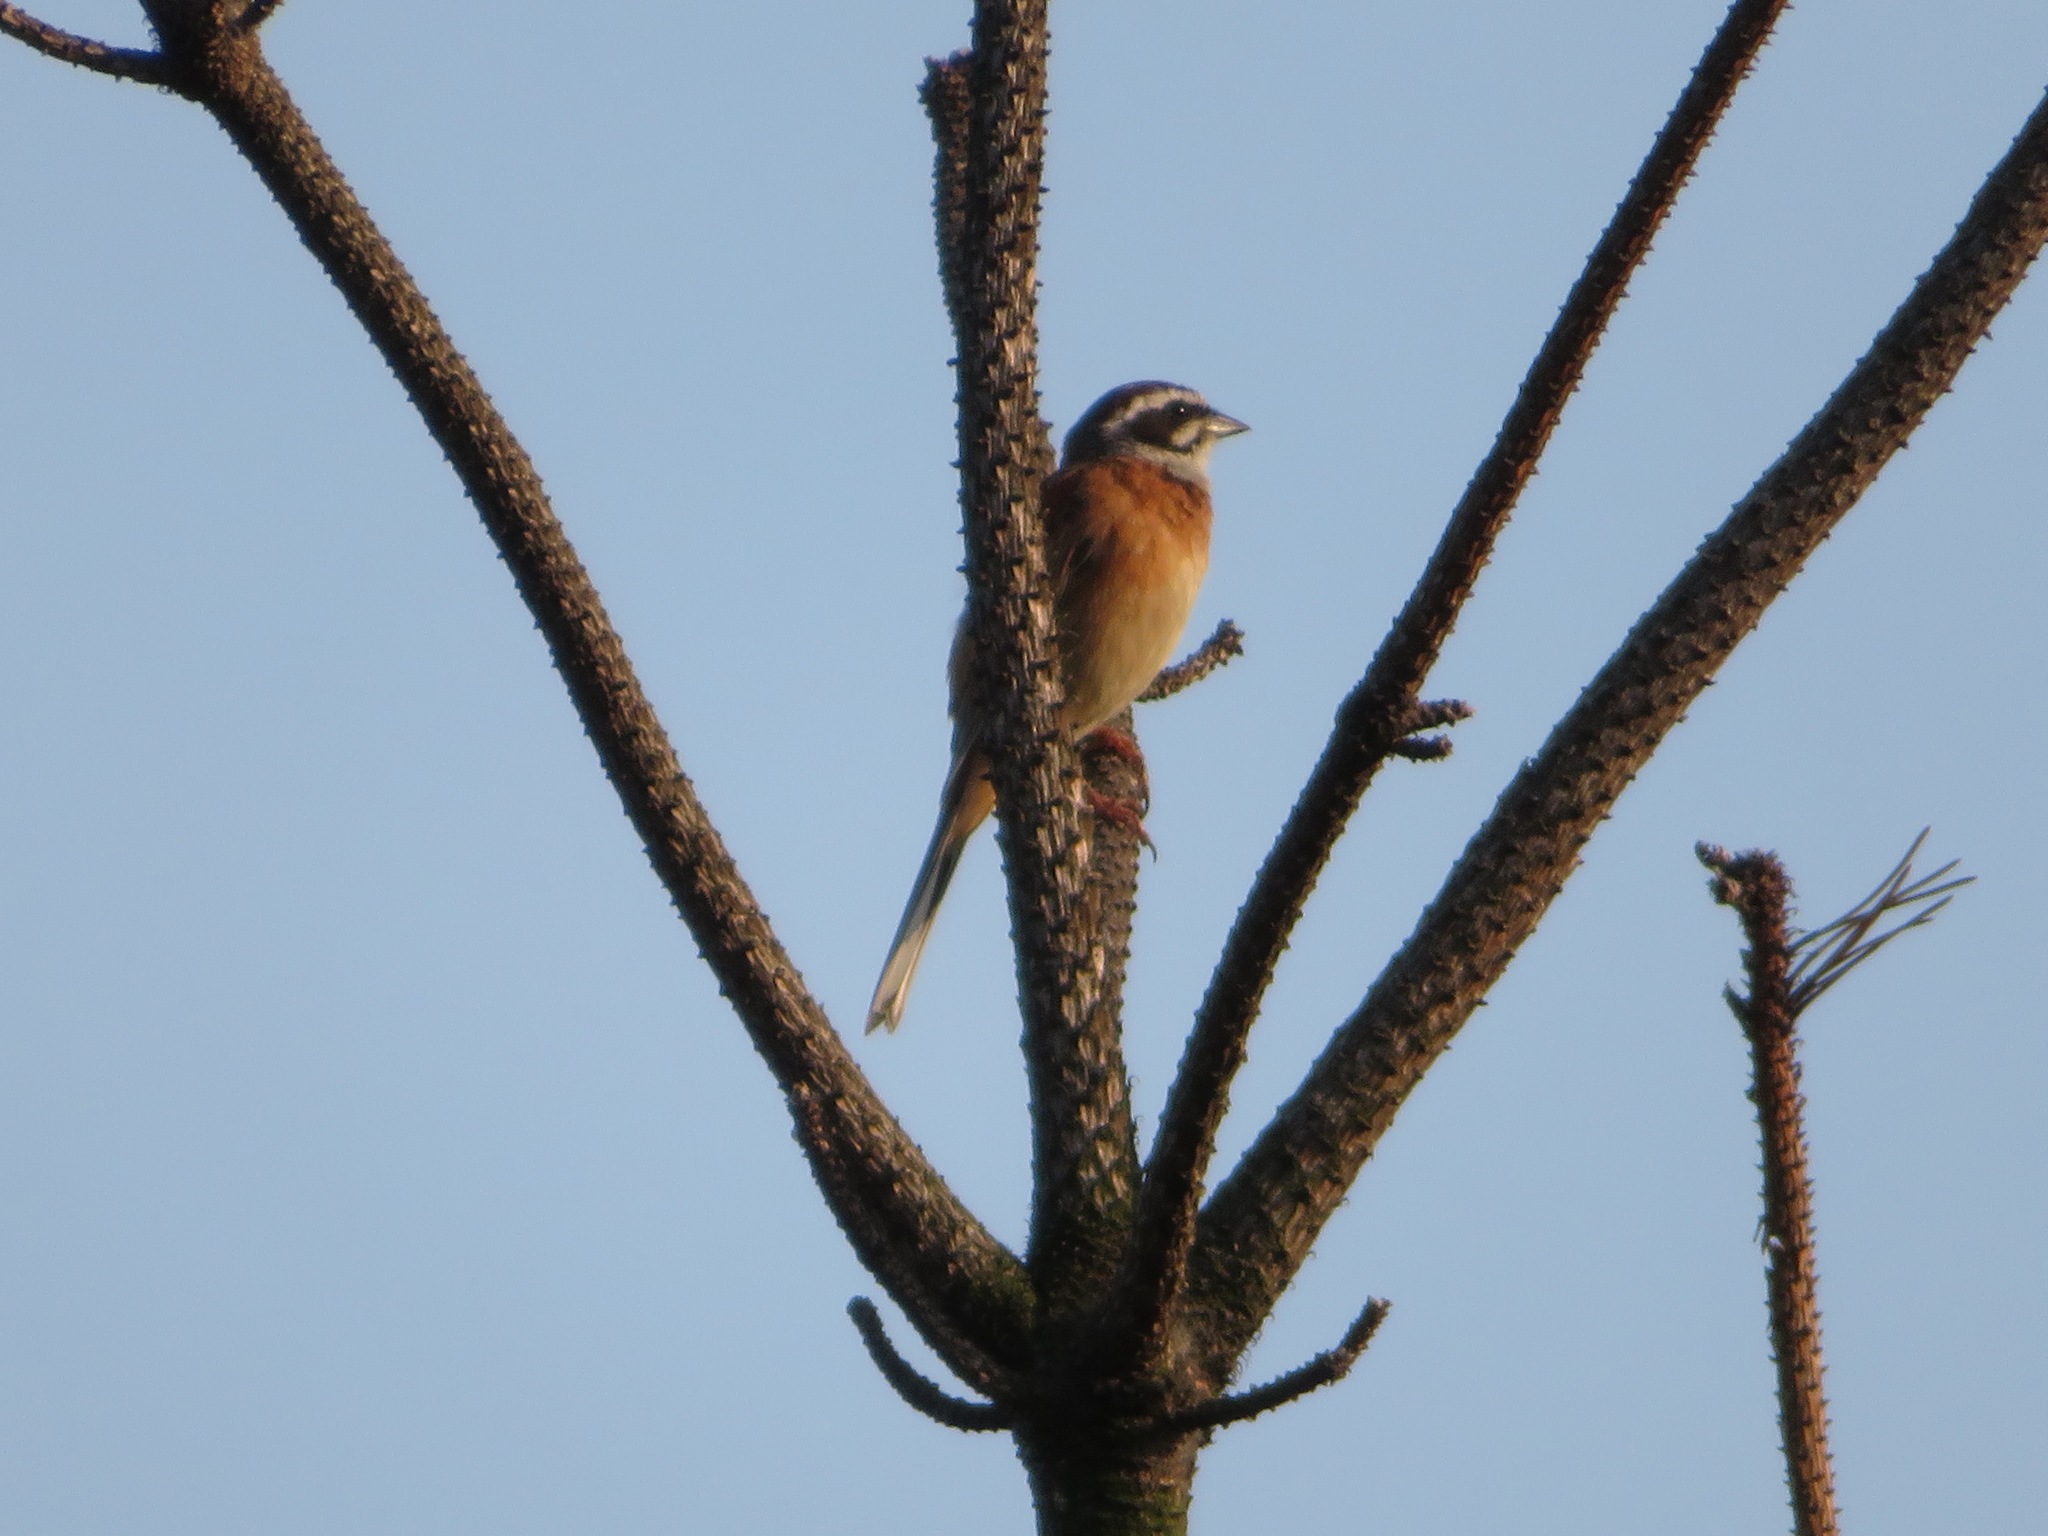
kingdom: Animalia
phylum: Chordata
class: Aves
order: Passeriformes
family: Emberizidae
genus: Emberiza
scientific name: Emberiza cioides
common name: Meadow bunting
